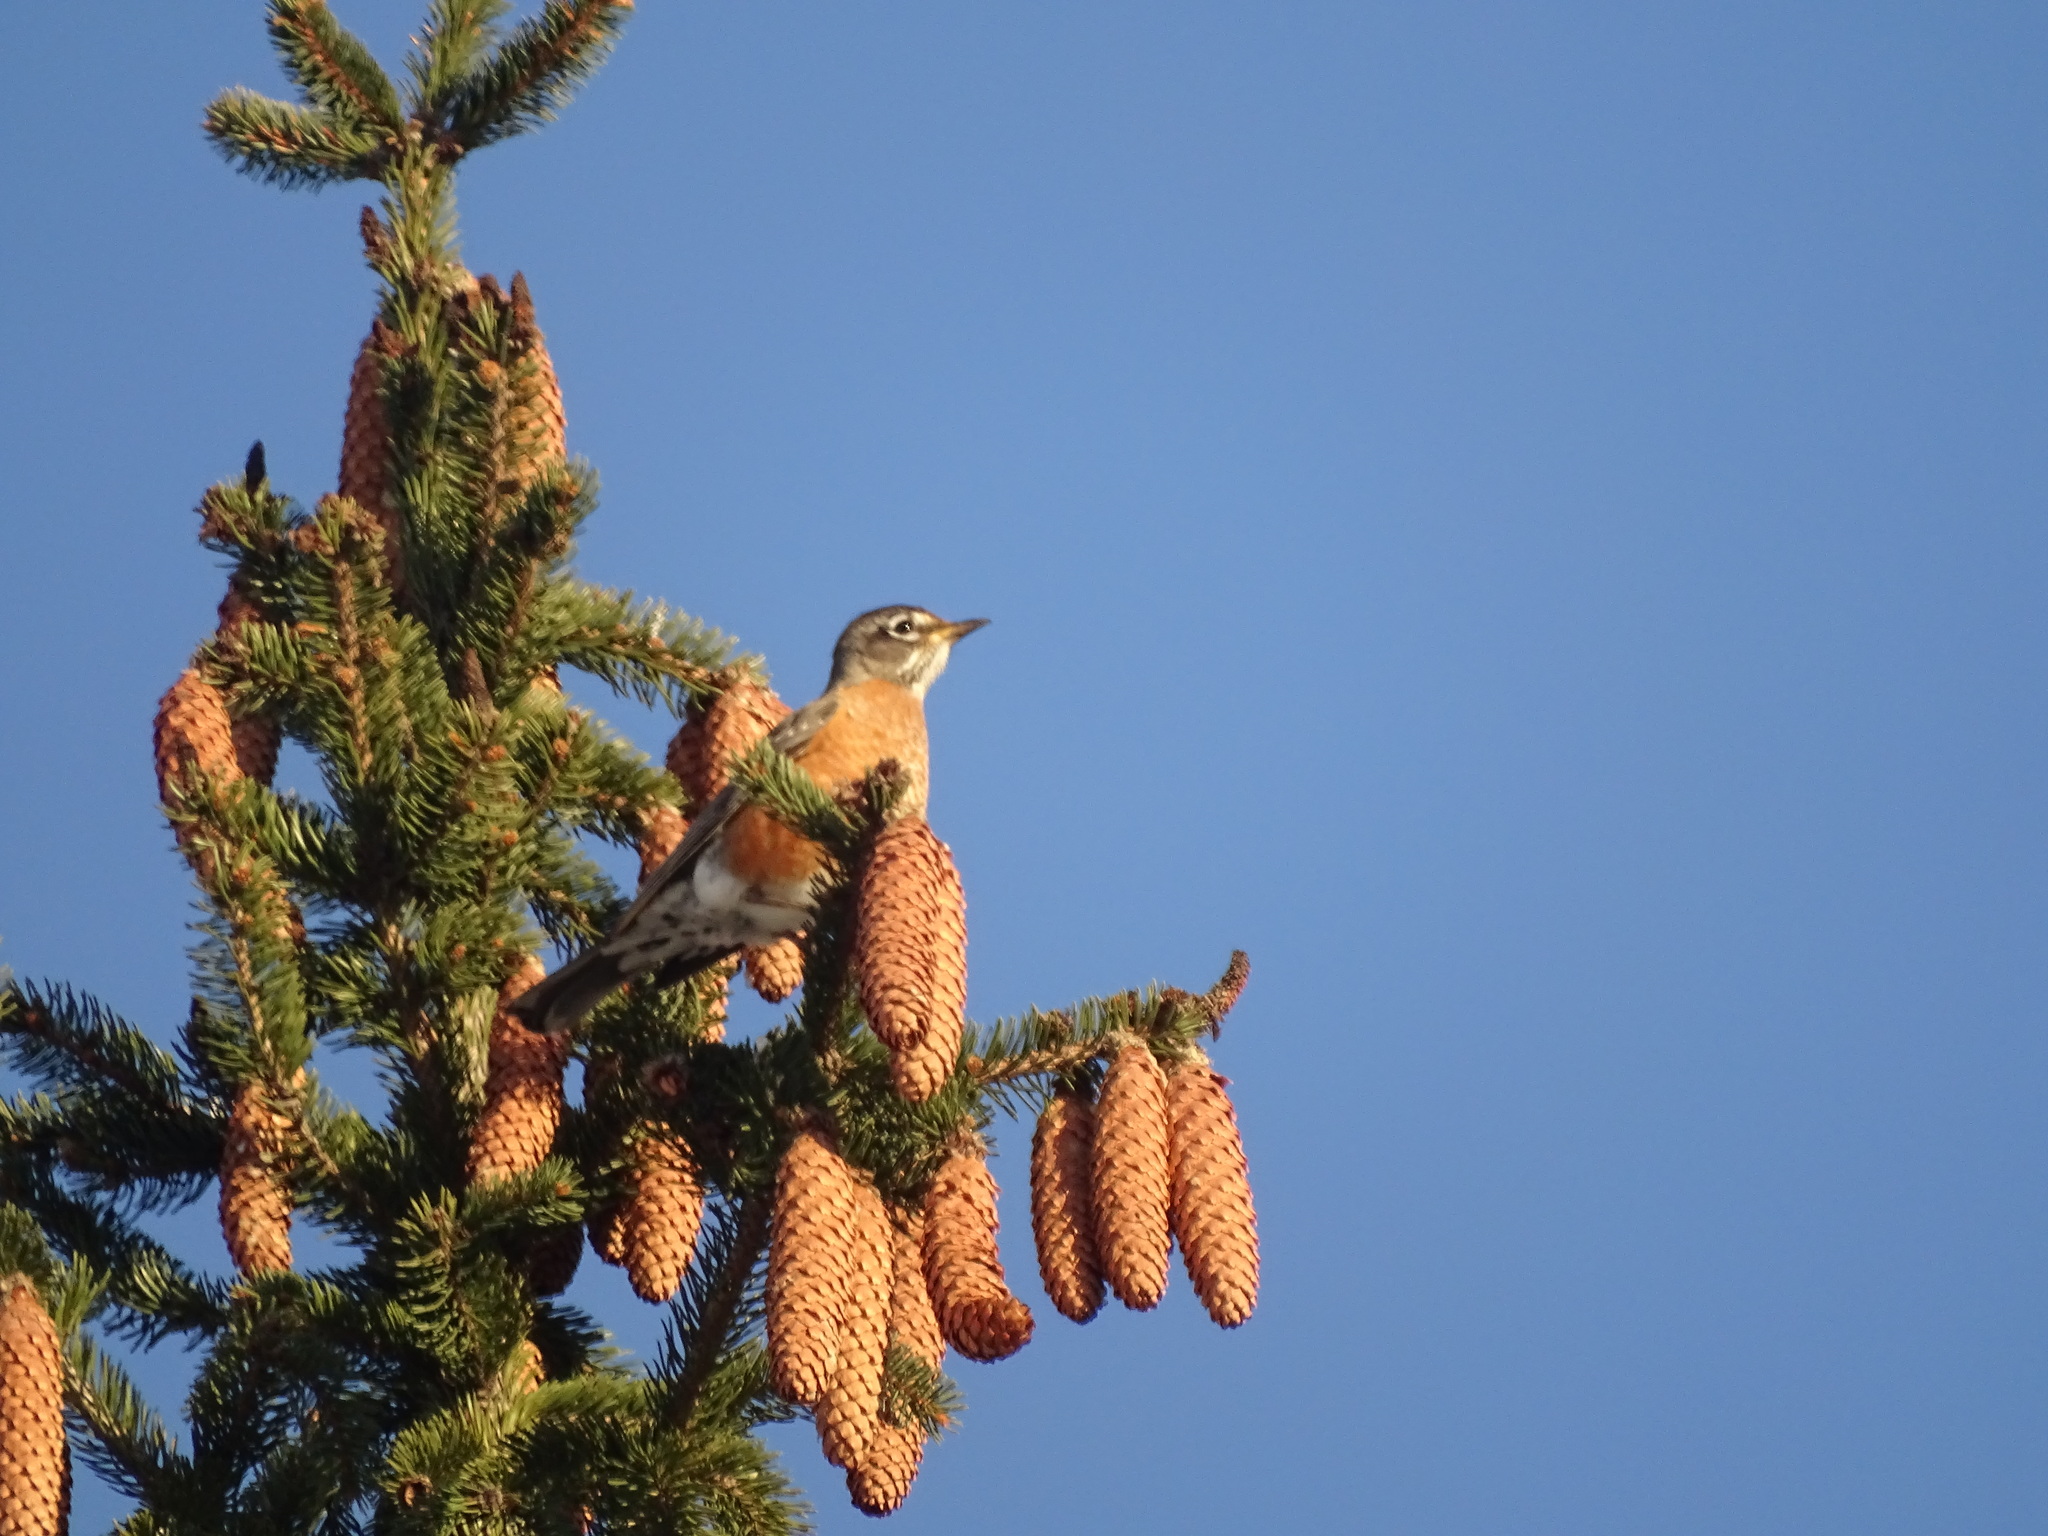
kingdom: Animalia
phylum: Chordata
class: Aves
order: Passeriformes
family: Turdidae
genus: Turdus
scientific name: Turdus migratorius
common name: American robin
